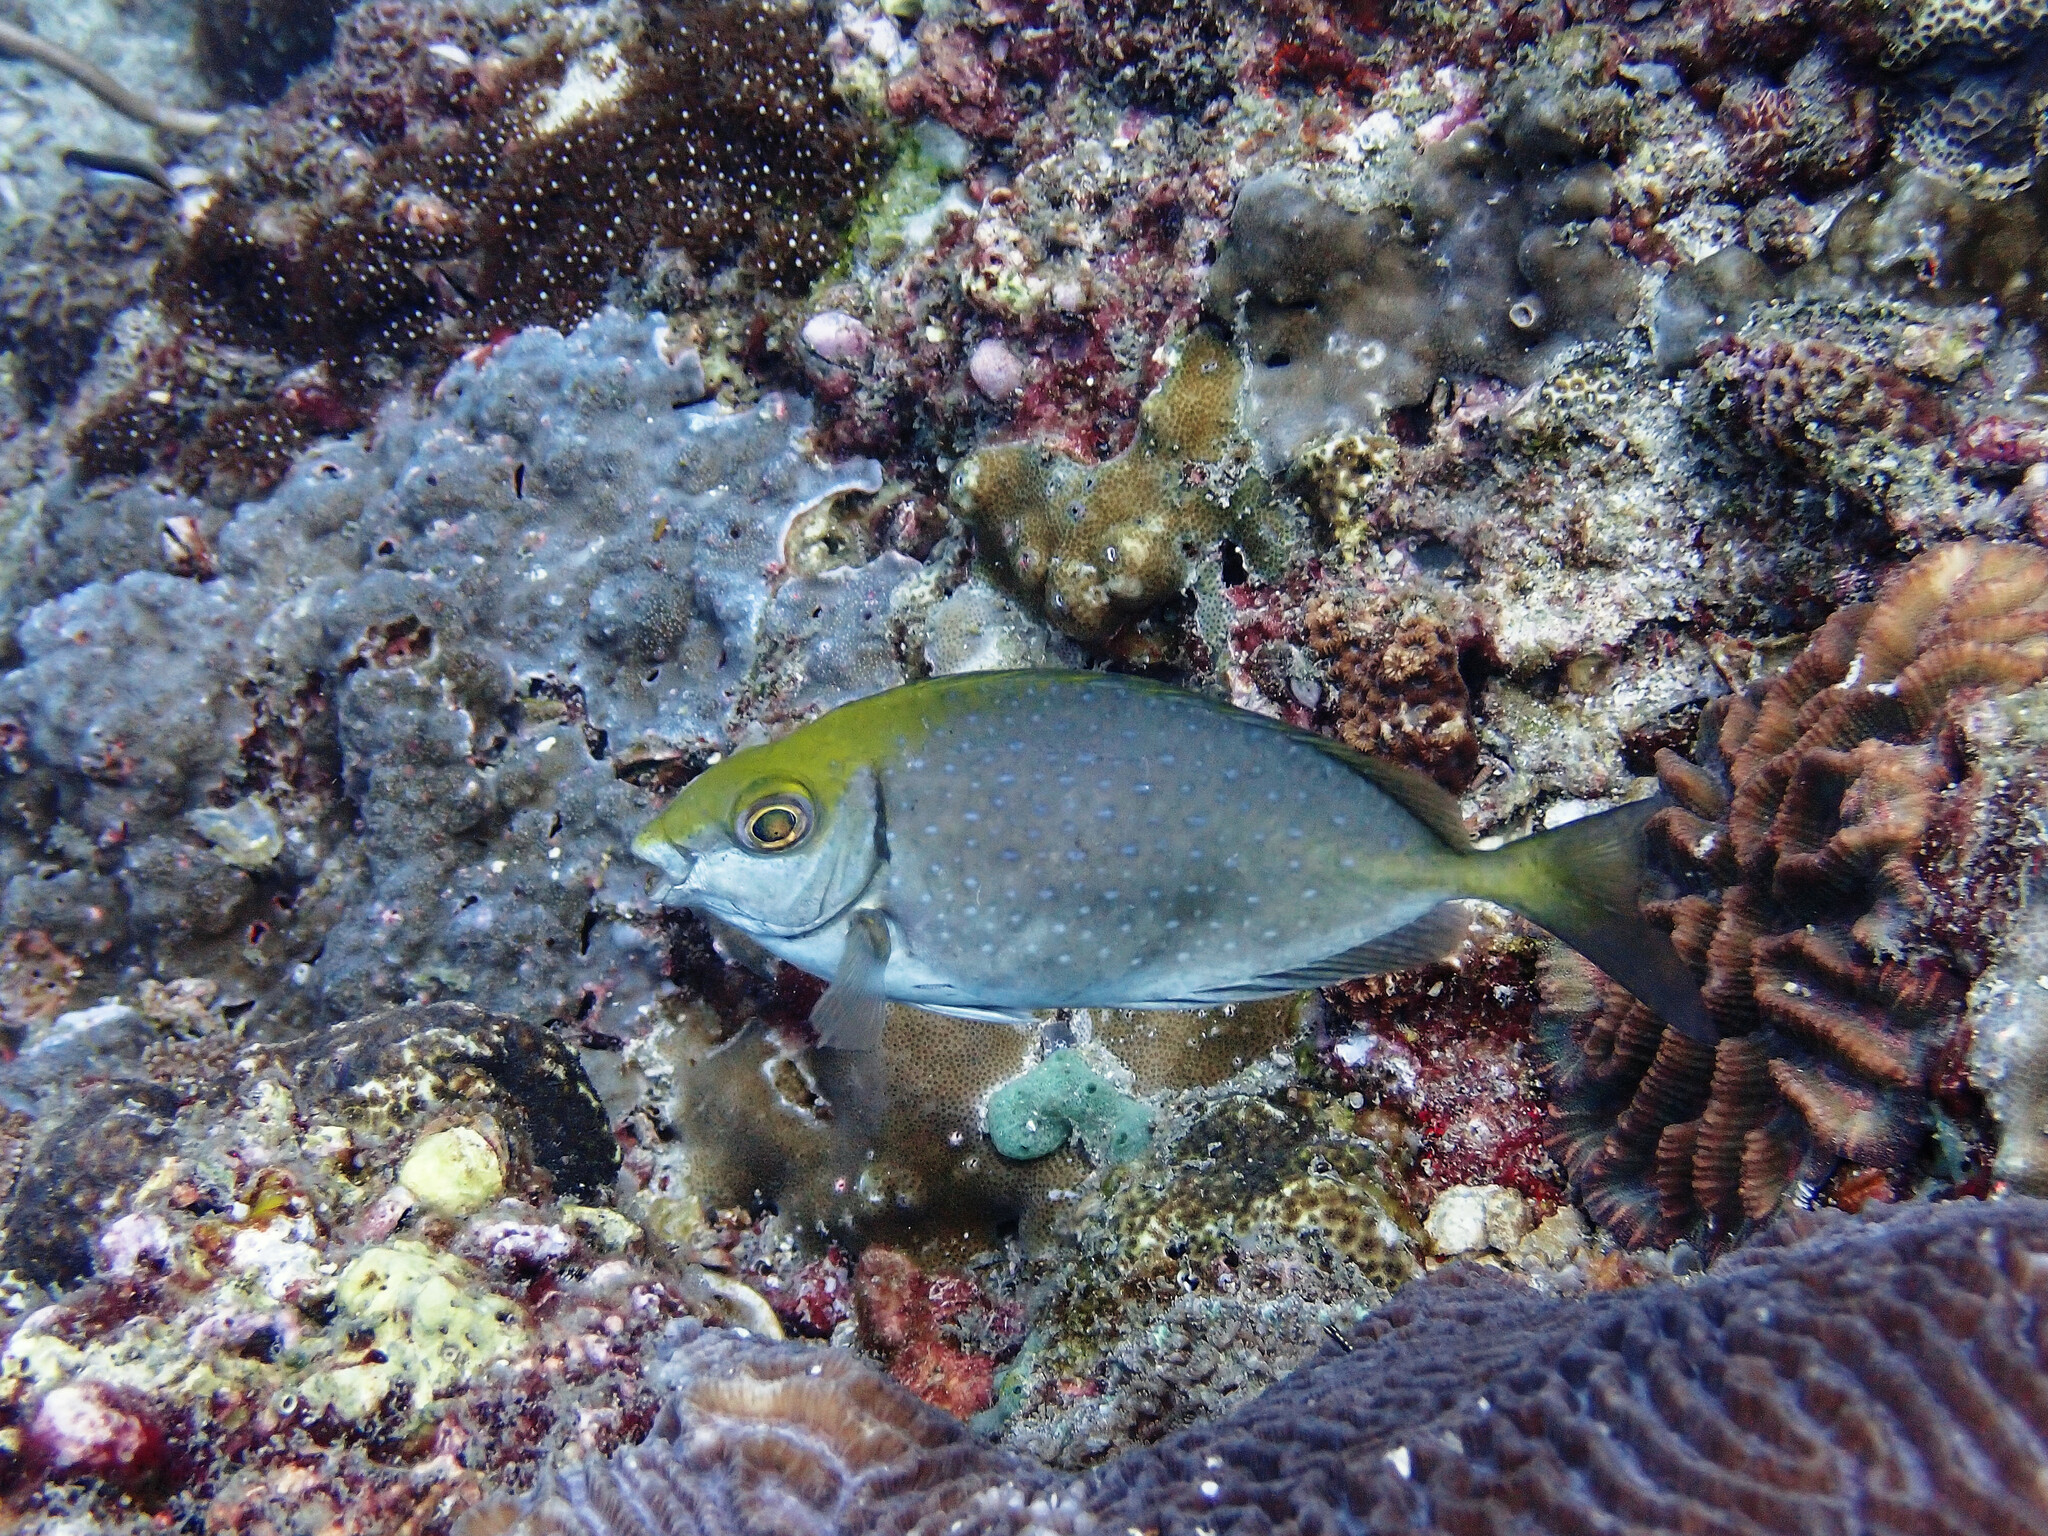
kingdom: Animalia
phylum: Chordata
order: Perciformes
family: Siganidae
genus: Siganus
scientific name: Siganus fuscescens
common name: Dusky rabbitfish
